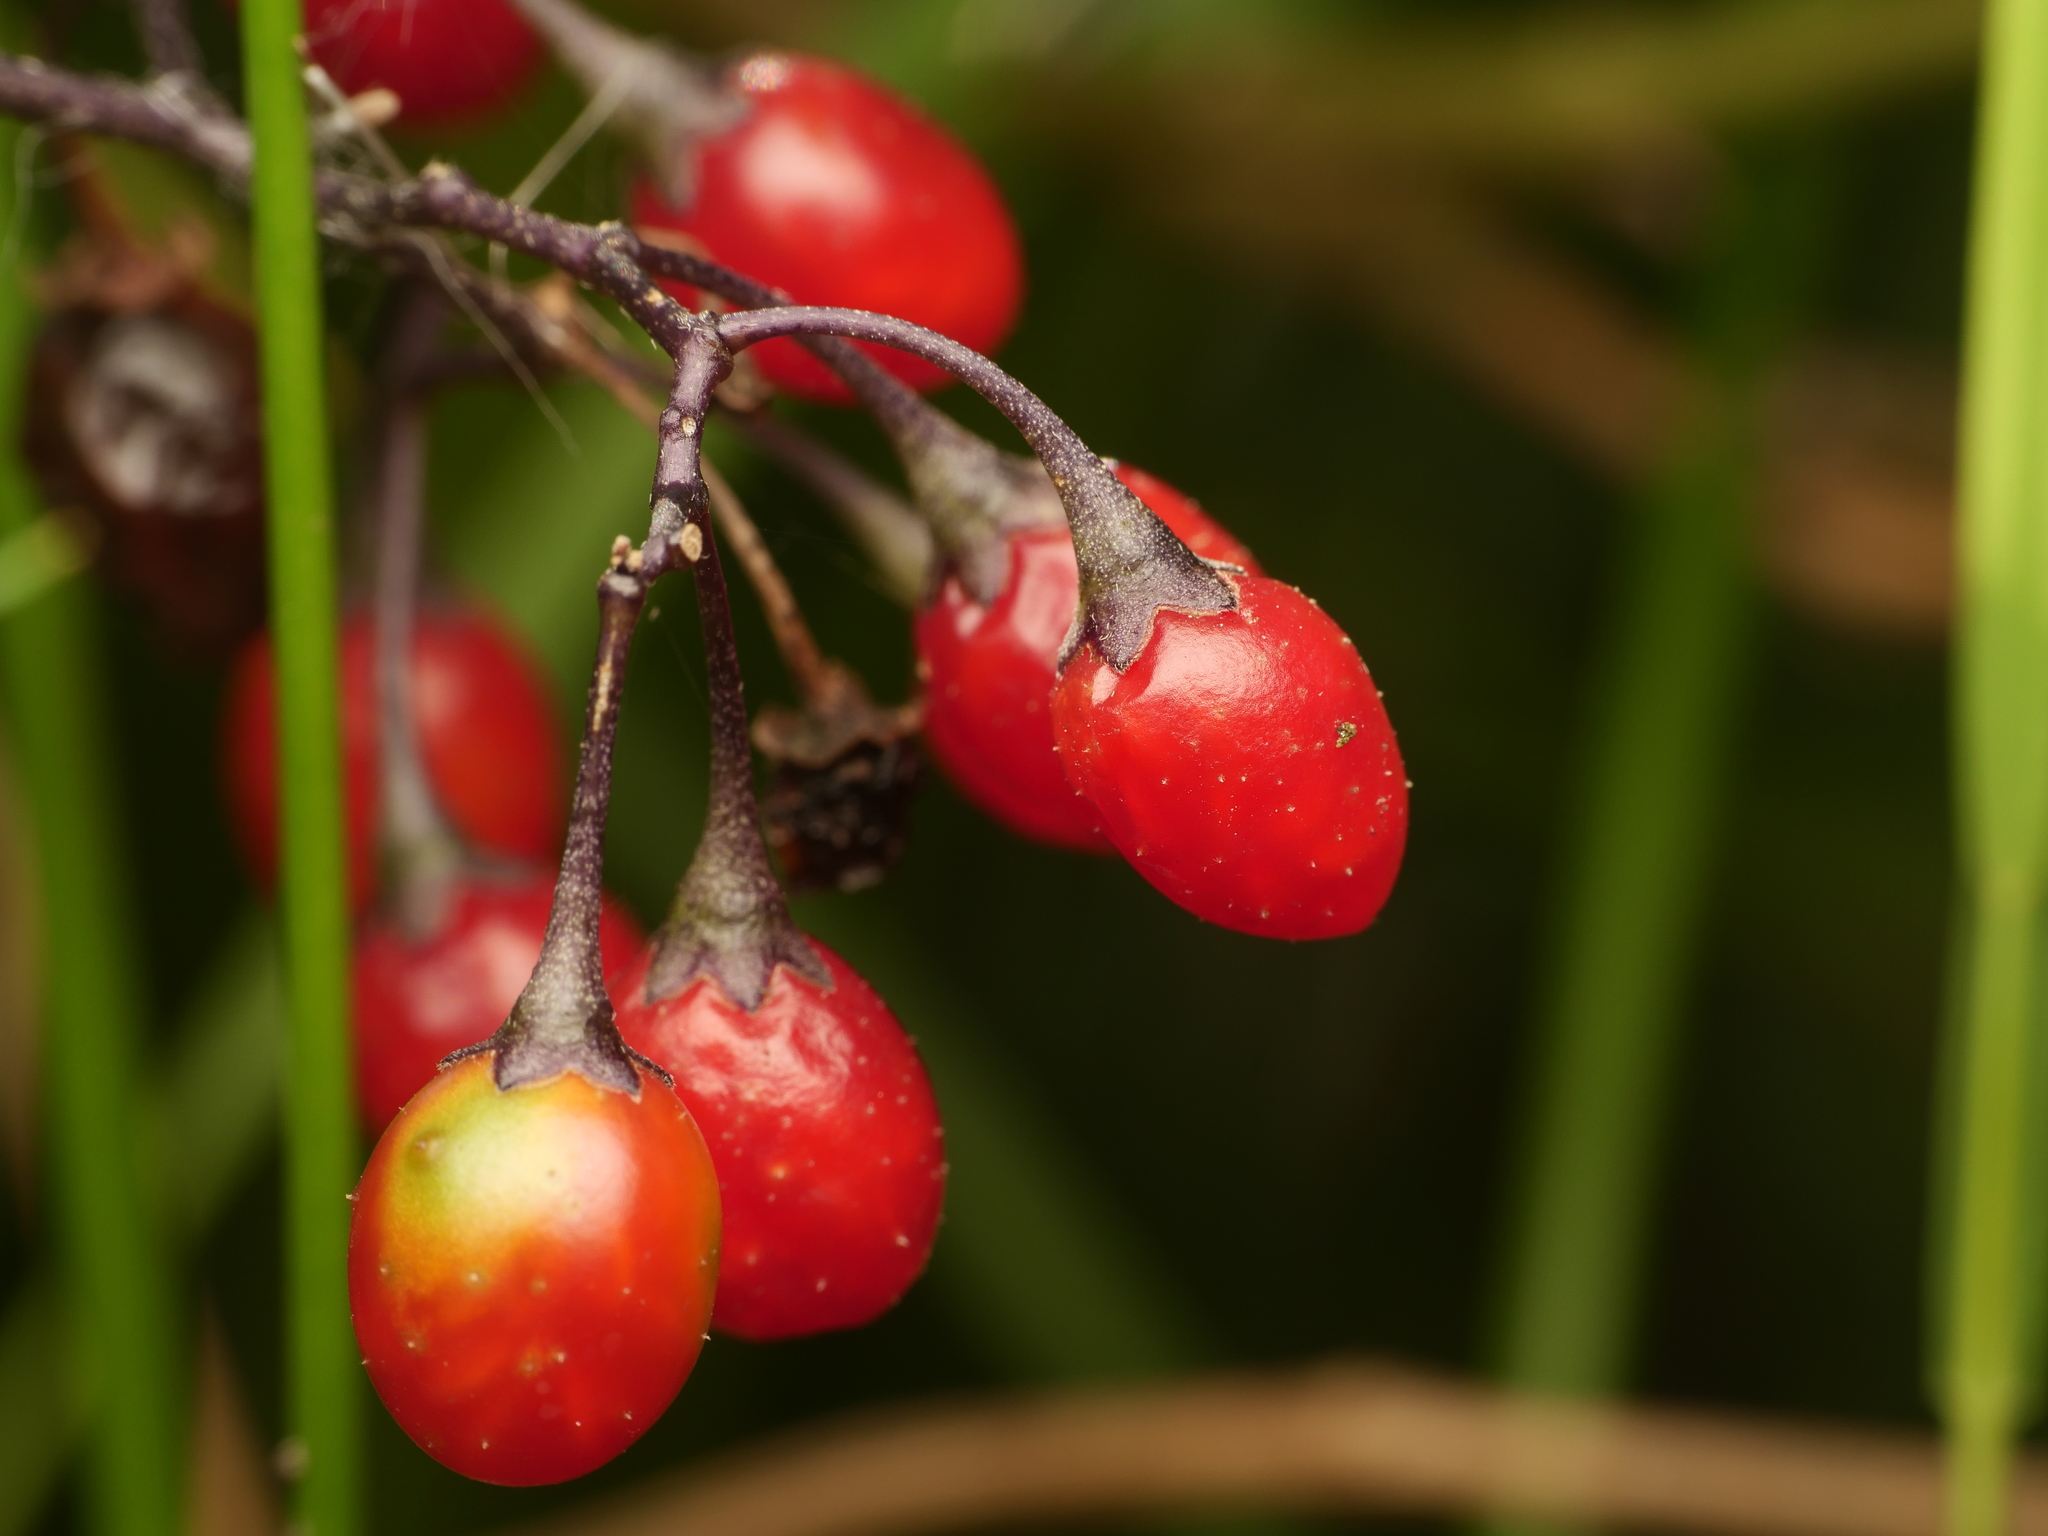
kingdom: Plantae
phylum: Tracheophyta
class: Magnoliopsida
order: Solanales
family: Solanaceae
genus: Solanum
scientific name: Solanum dulcamara
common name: Climbing nightshade
